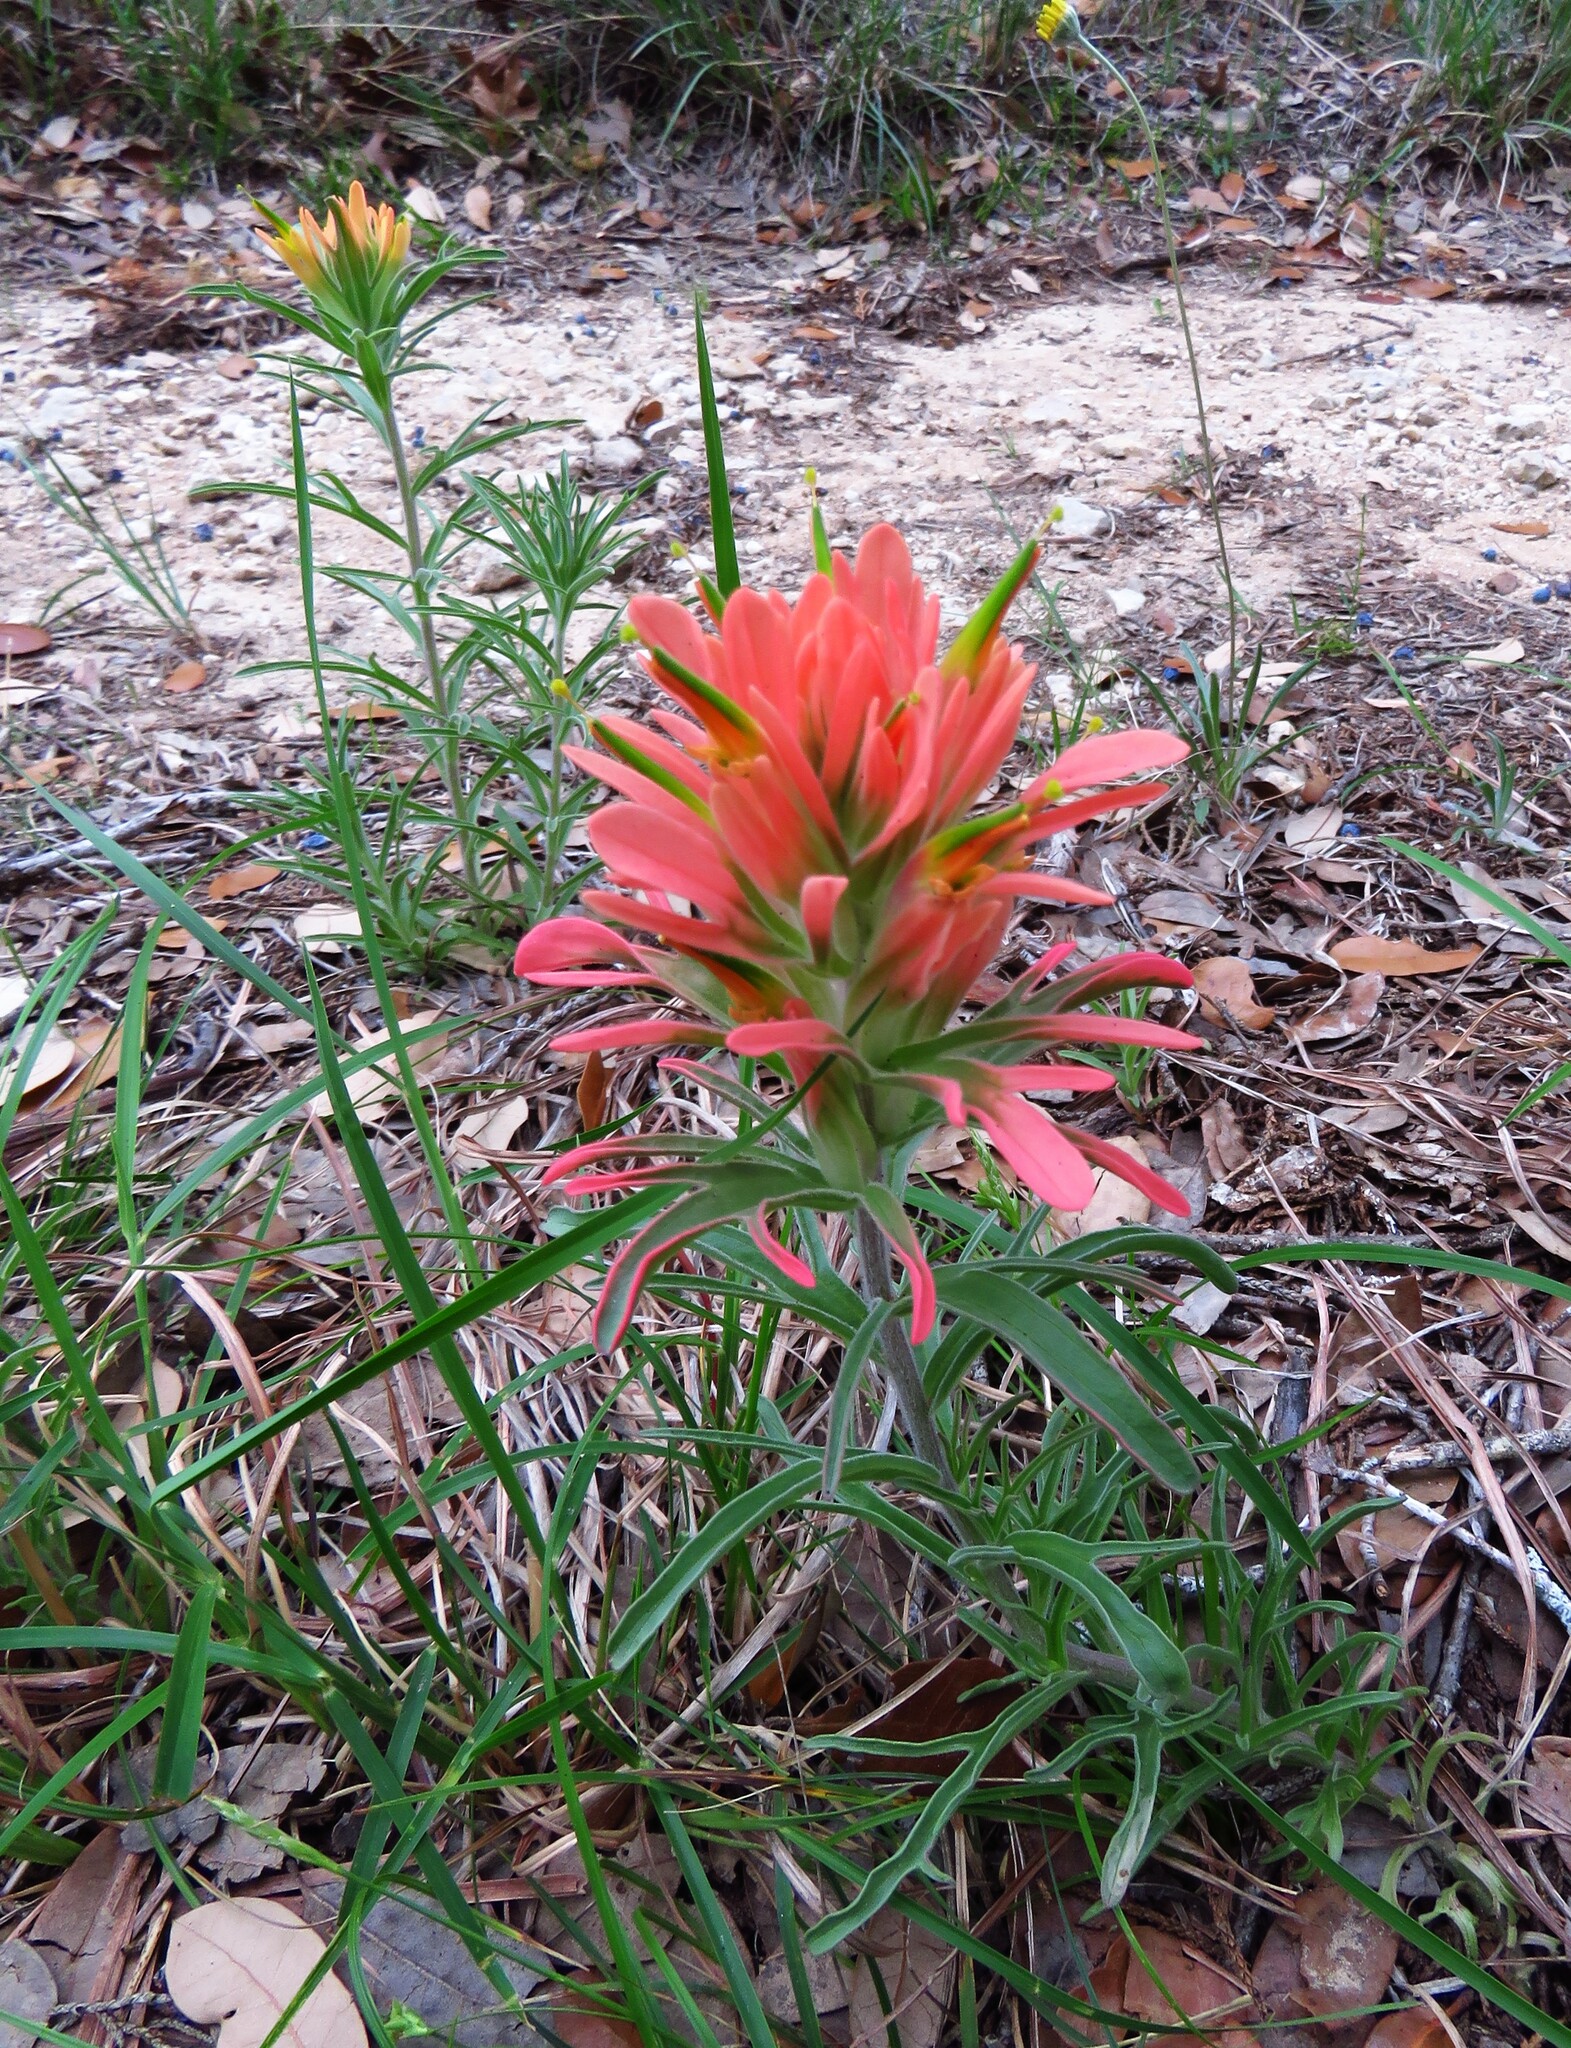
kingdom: Plantae
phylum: Tracheophyta
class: Magnoliopsida
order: Lamiales
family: Orobanchaceae
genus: Castilleja
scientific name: Castilleja lindheimeri
